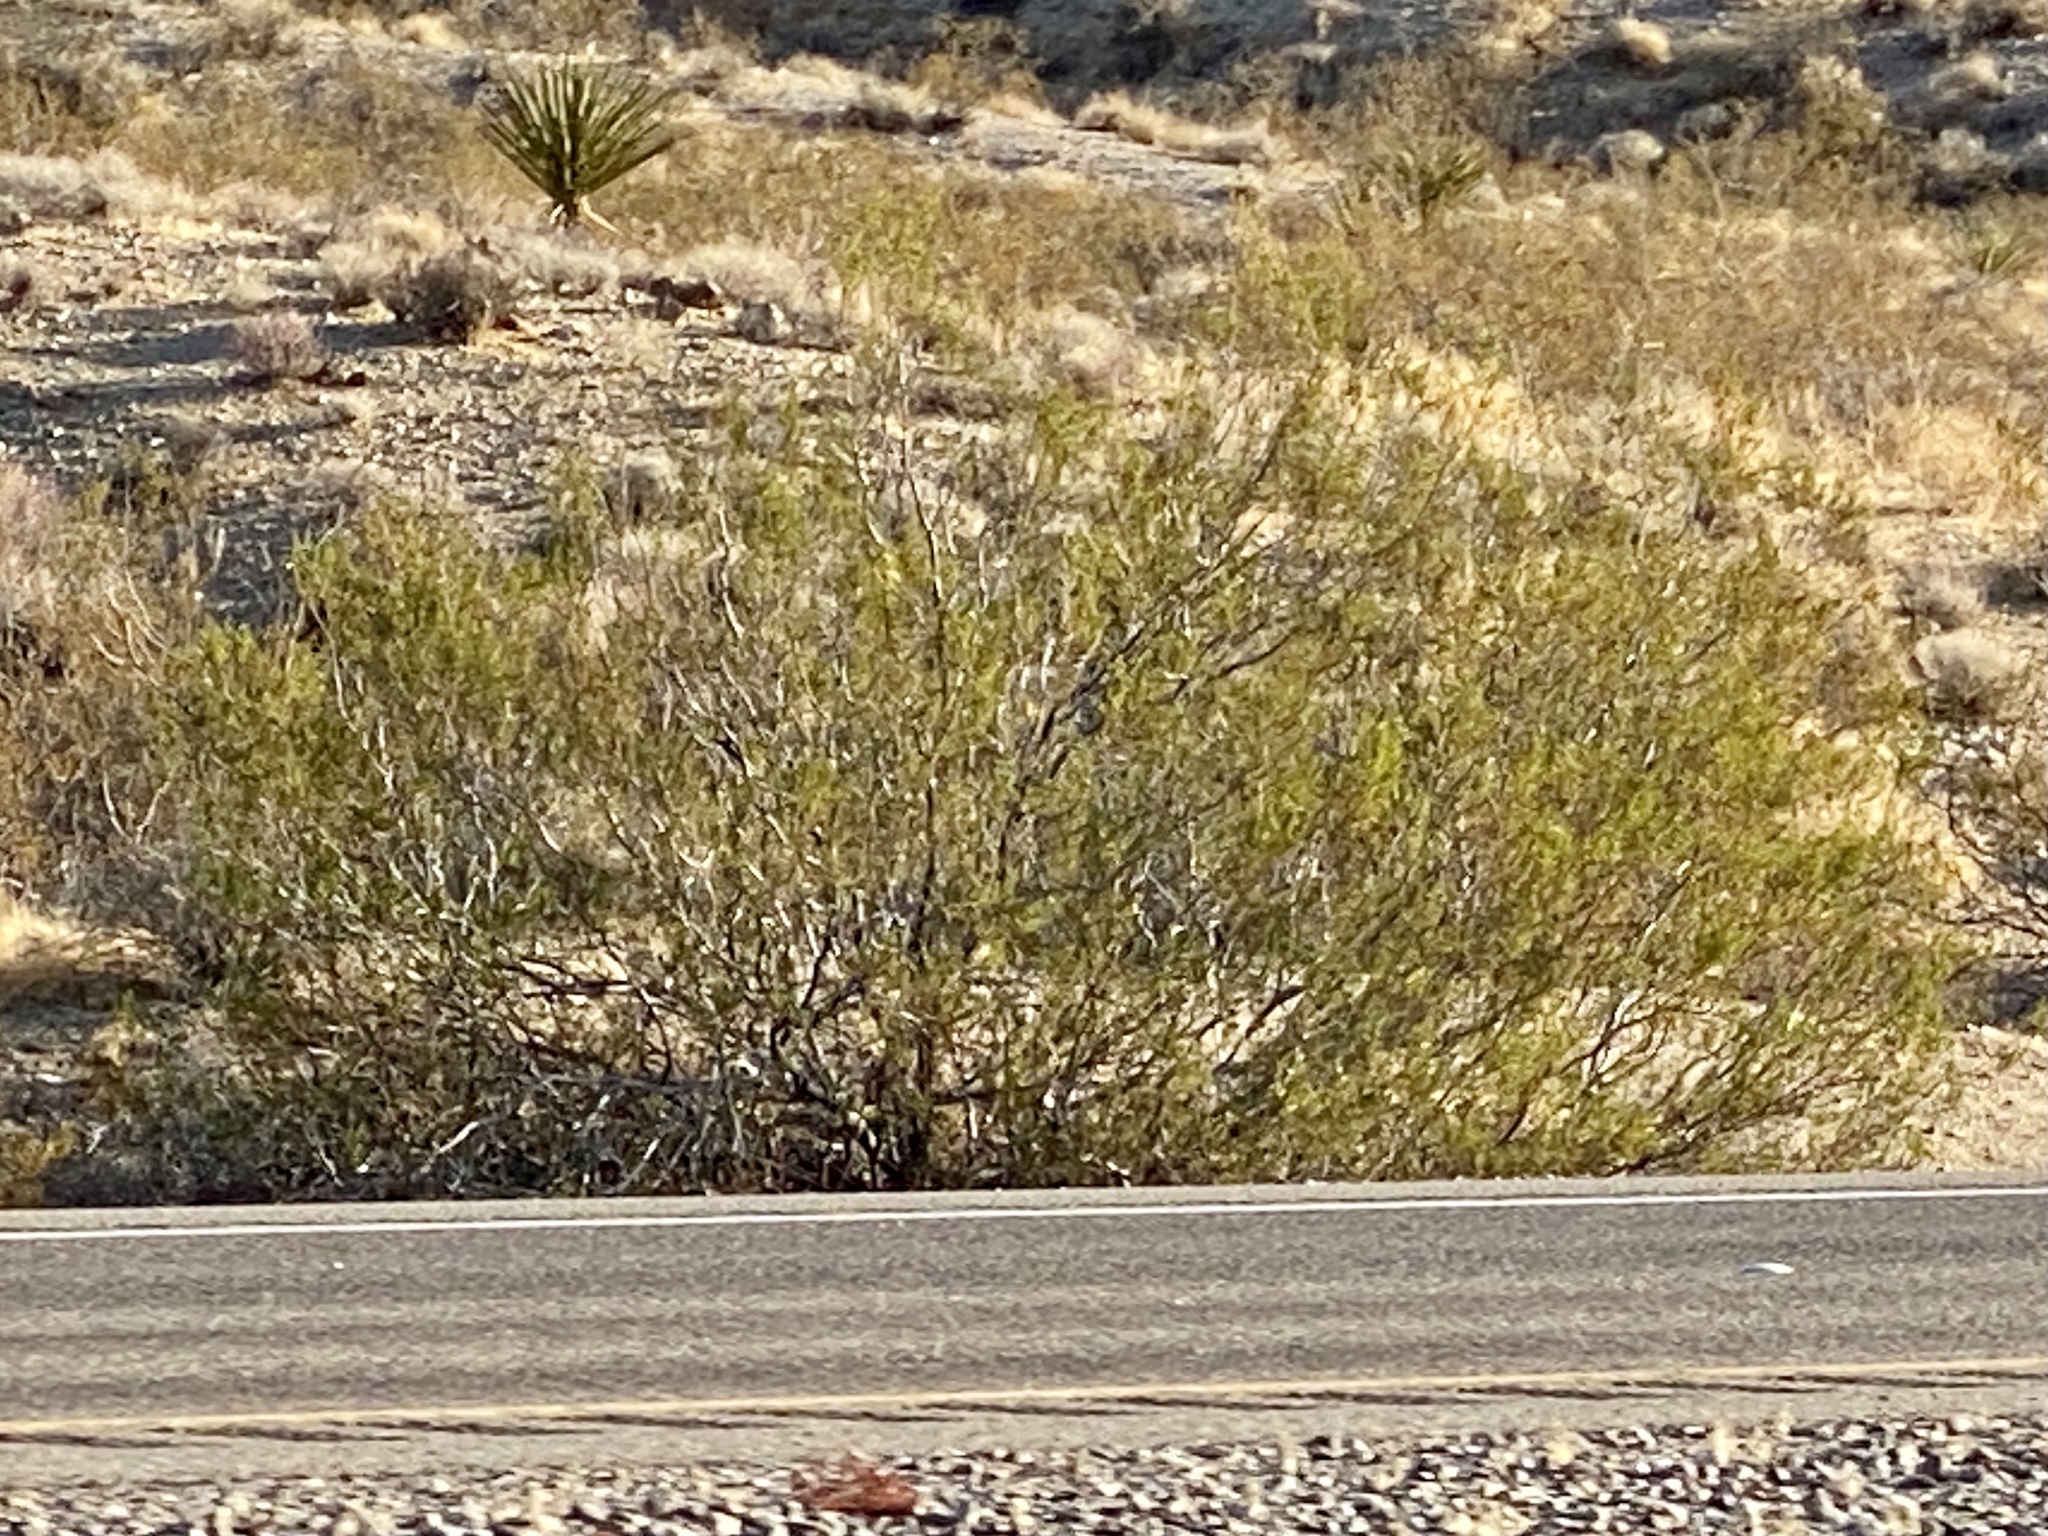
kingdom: Plantae
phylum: Tracheophyta
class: Magnoliopsida
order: Zygophyllales
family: Zygophyllaceae
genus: Larrea
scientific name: Larrea tridentata
